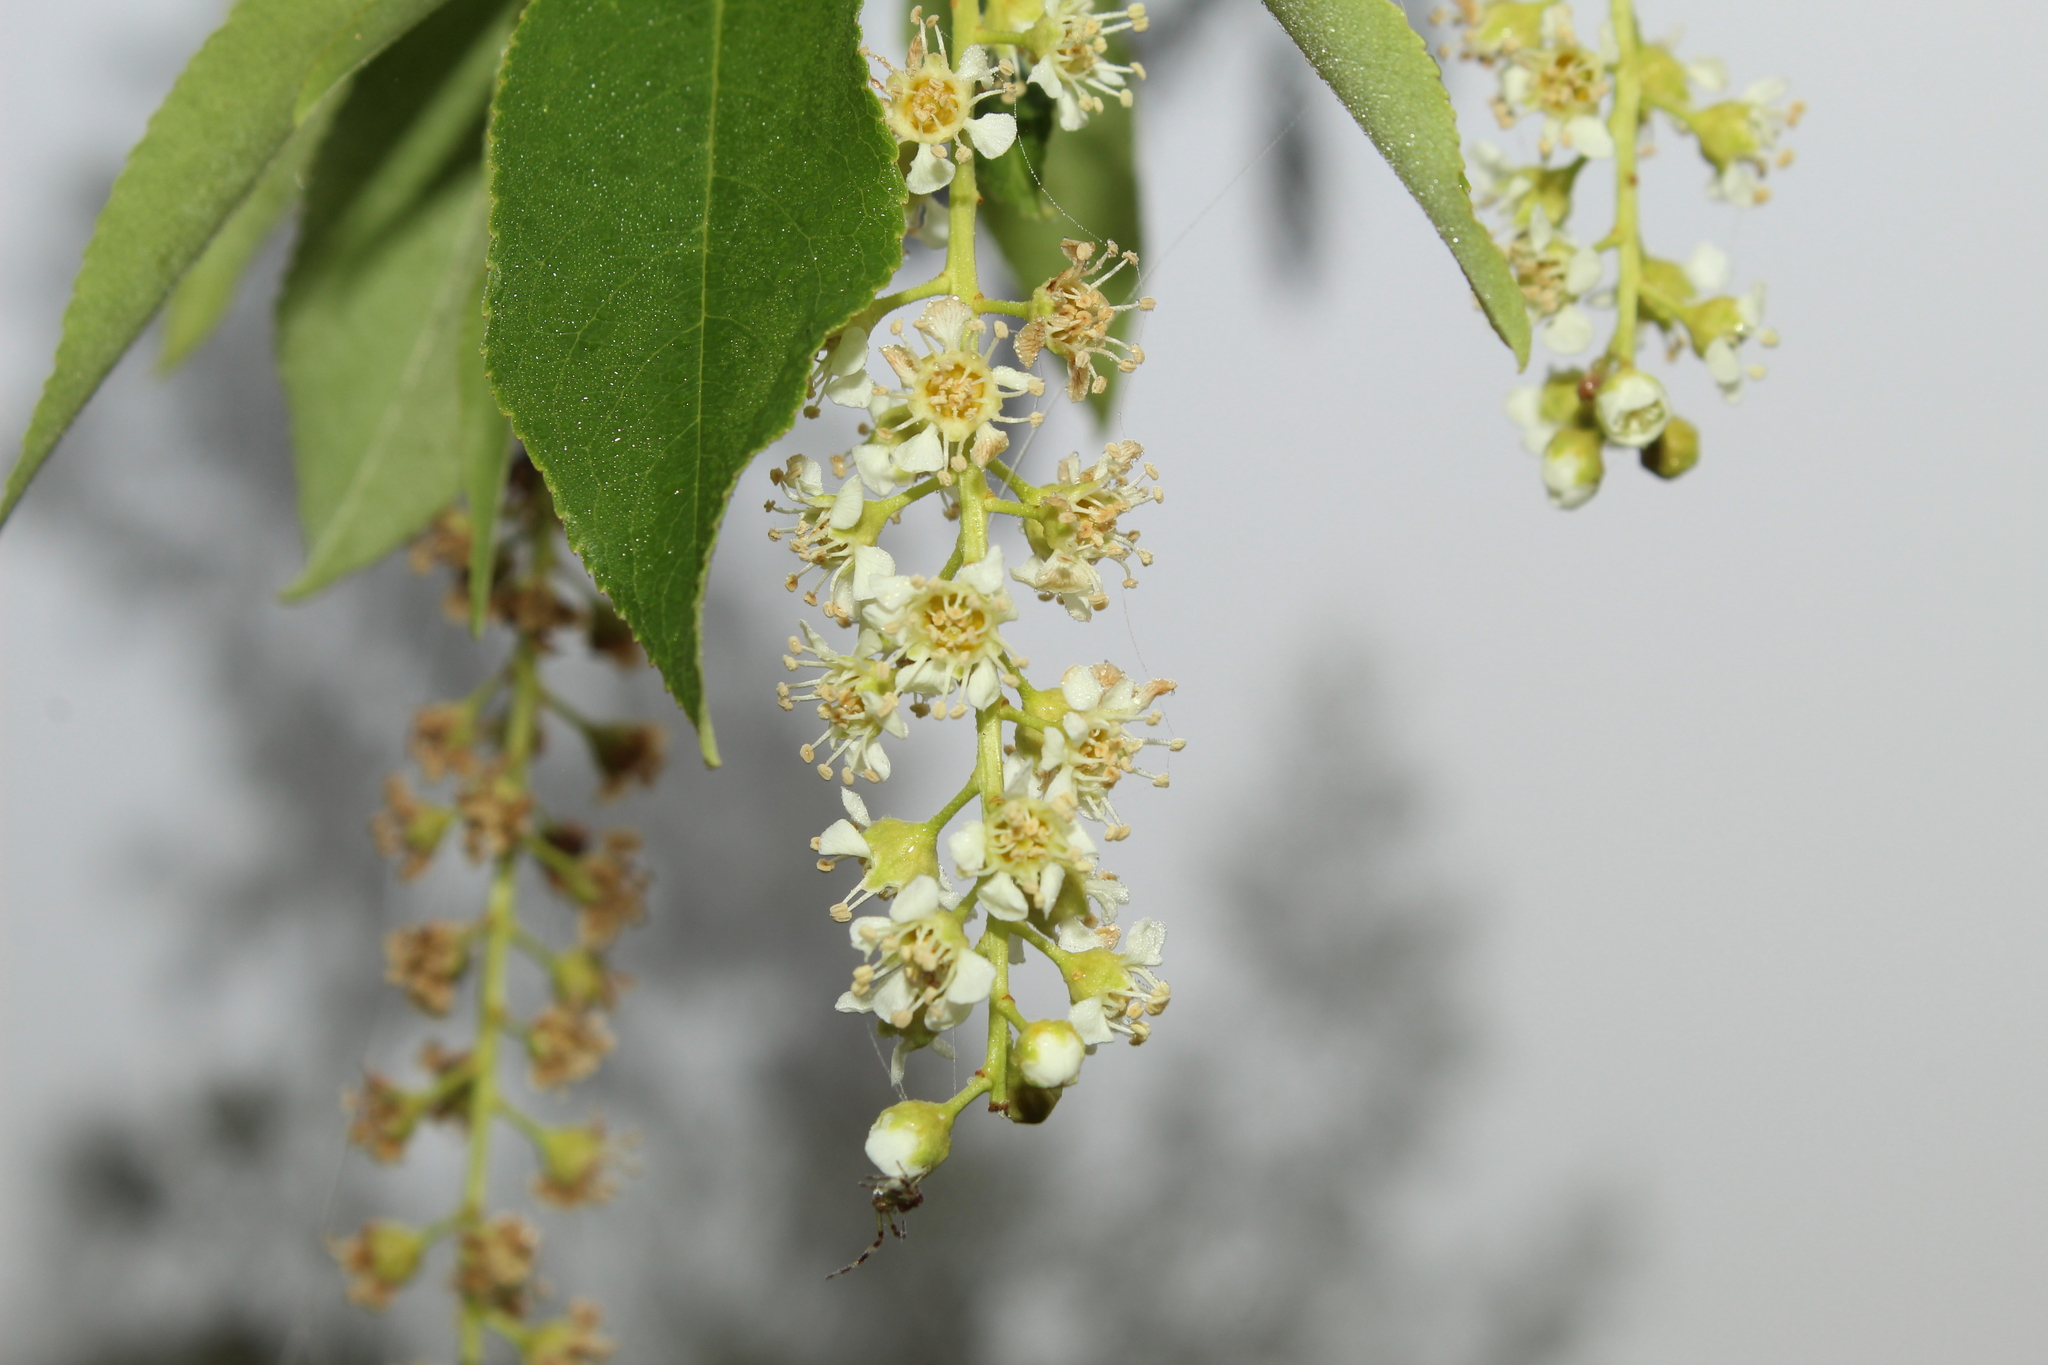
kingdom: Plantae
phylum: Tracheophyta
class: Magnoliopsida
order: Rosales
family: Rosaceae
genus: Prunus
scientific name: Prunus serotina
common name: Black cherry
